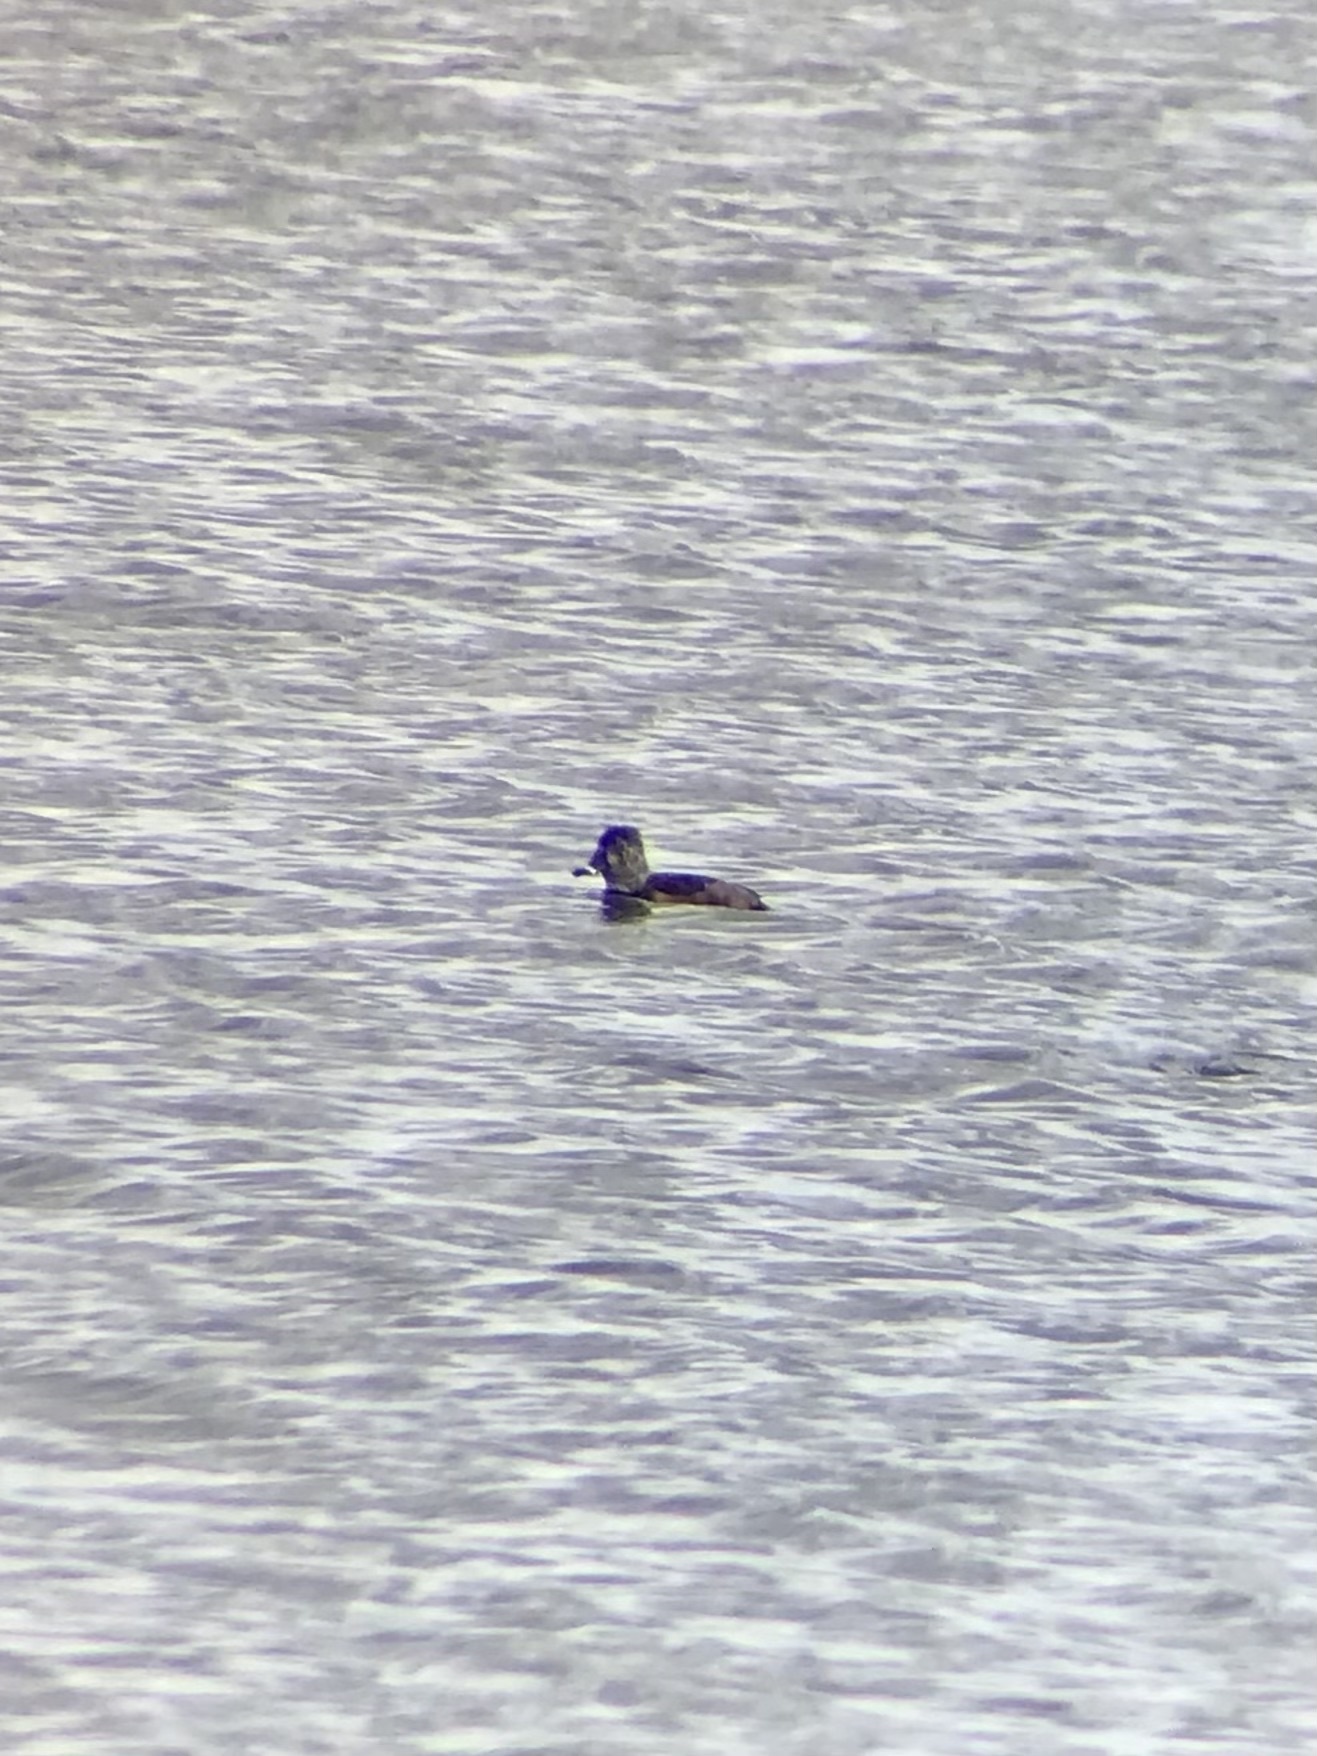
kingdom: Animalia
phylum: Chordata
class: Aves
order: Anseriformes
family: Anatidae
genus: Aythya
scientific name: Aythya collaris
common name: Ring-necked duck
